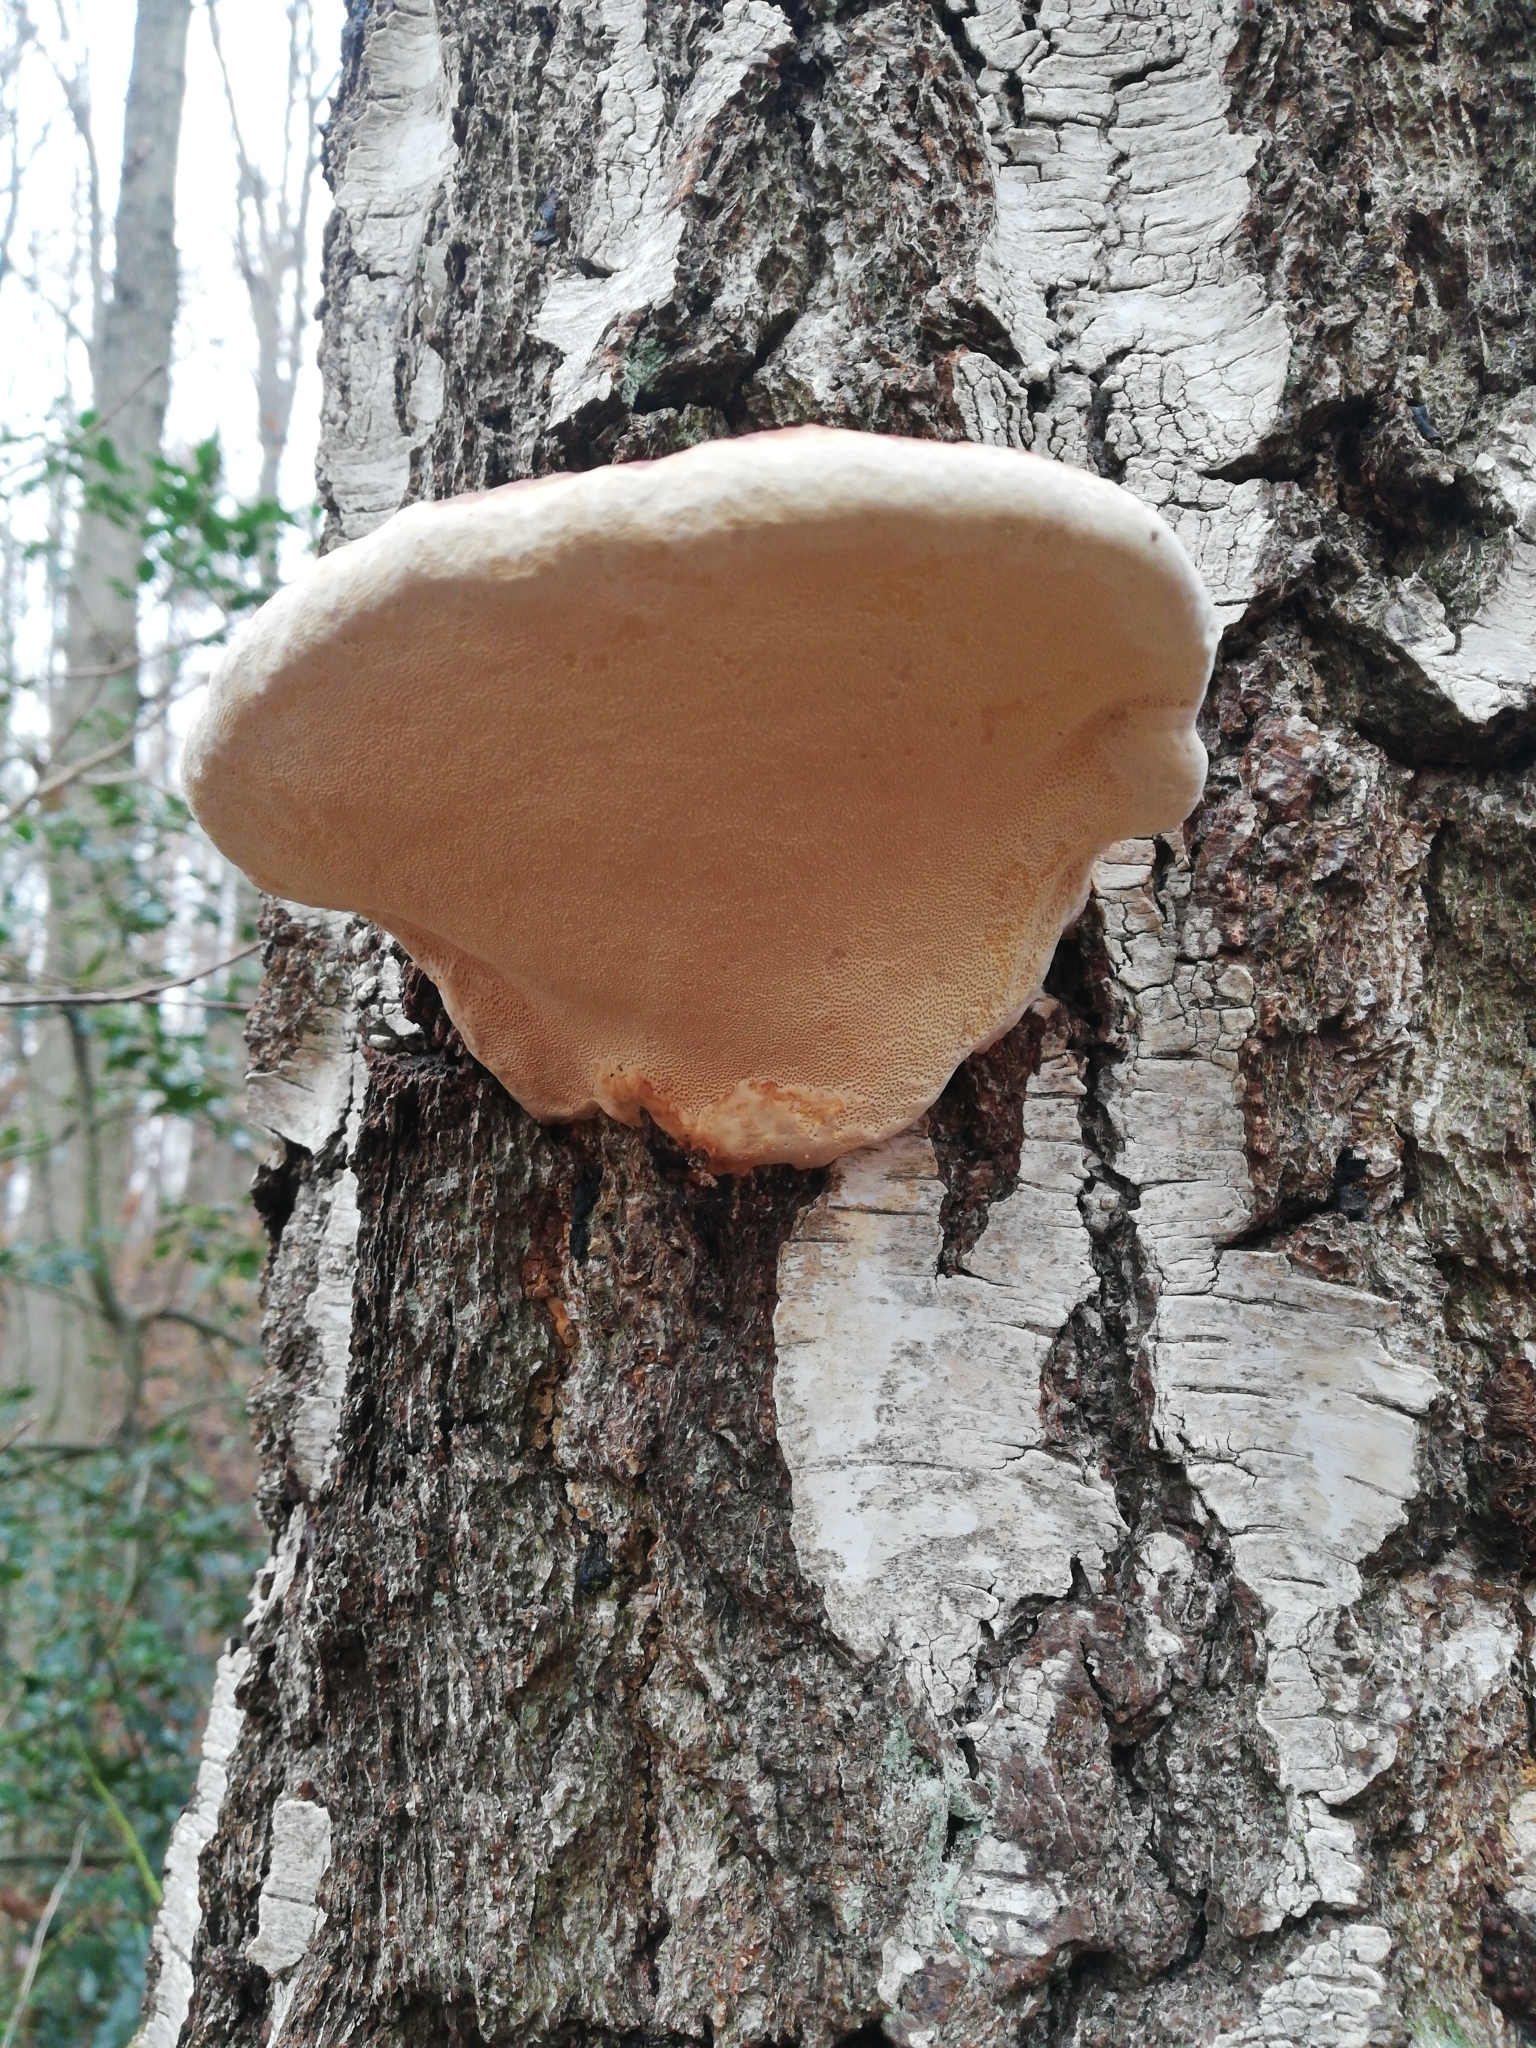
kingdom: Fungi
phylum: Basidiomycota
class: Agaricomycetes
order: Polyporales
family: Fomitopsidaceae
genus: Fomitopsis
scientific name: Fomitopsis pinicola
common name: Red-belted bracket
